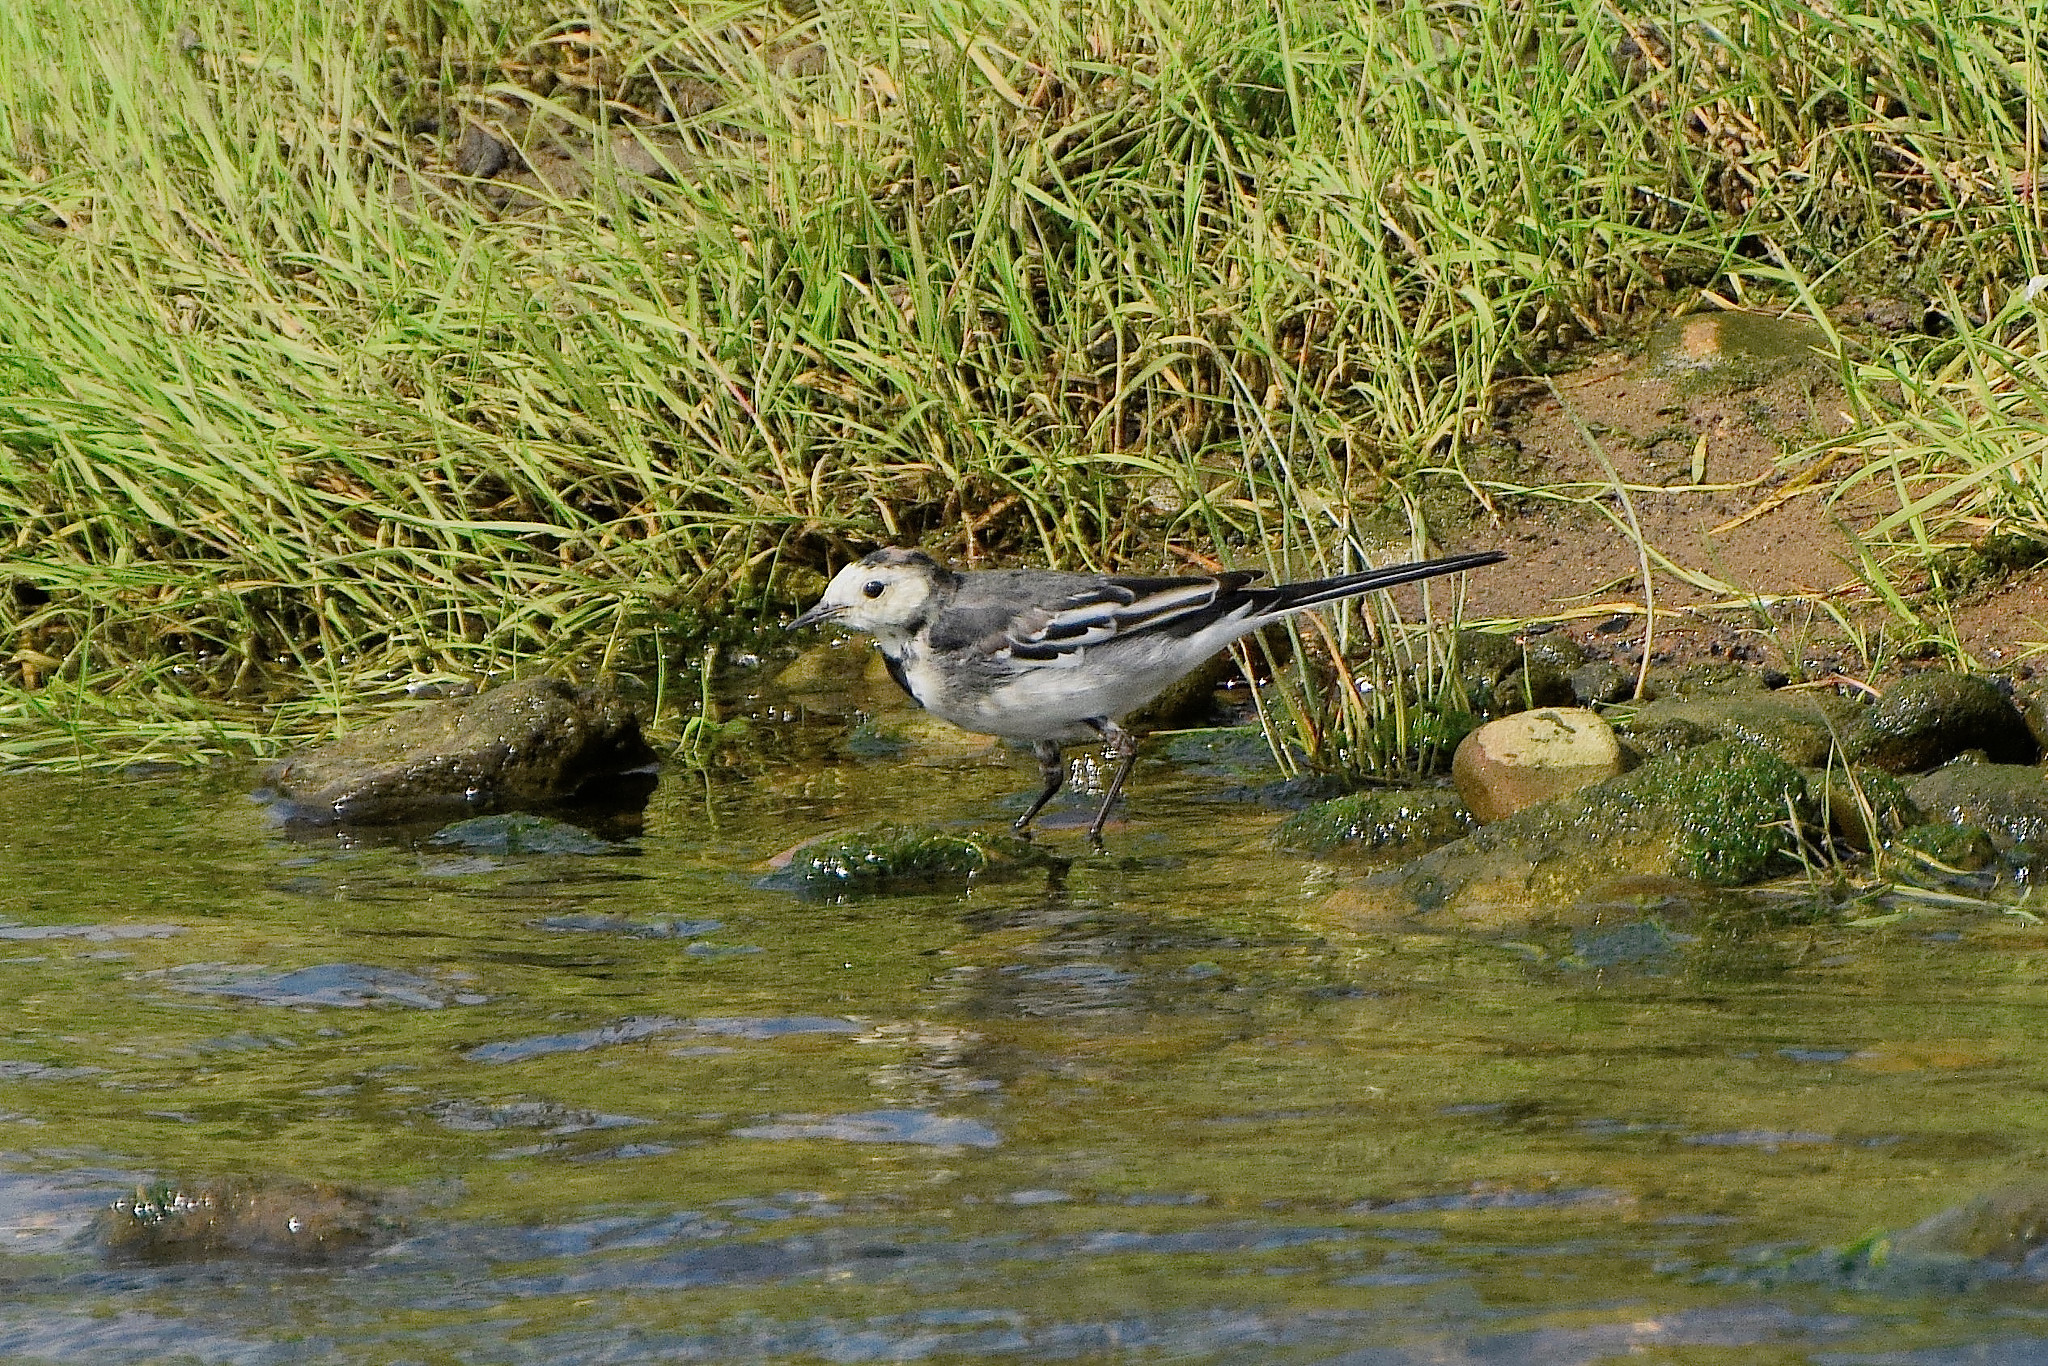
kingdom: Animalia
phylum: Chordata
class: Aves
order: Passeriformes
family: Motacillidae
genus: Motacilla
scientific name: Motacilla alba
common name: White wagtail
